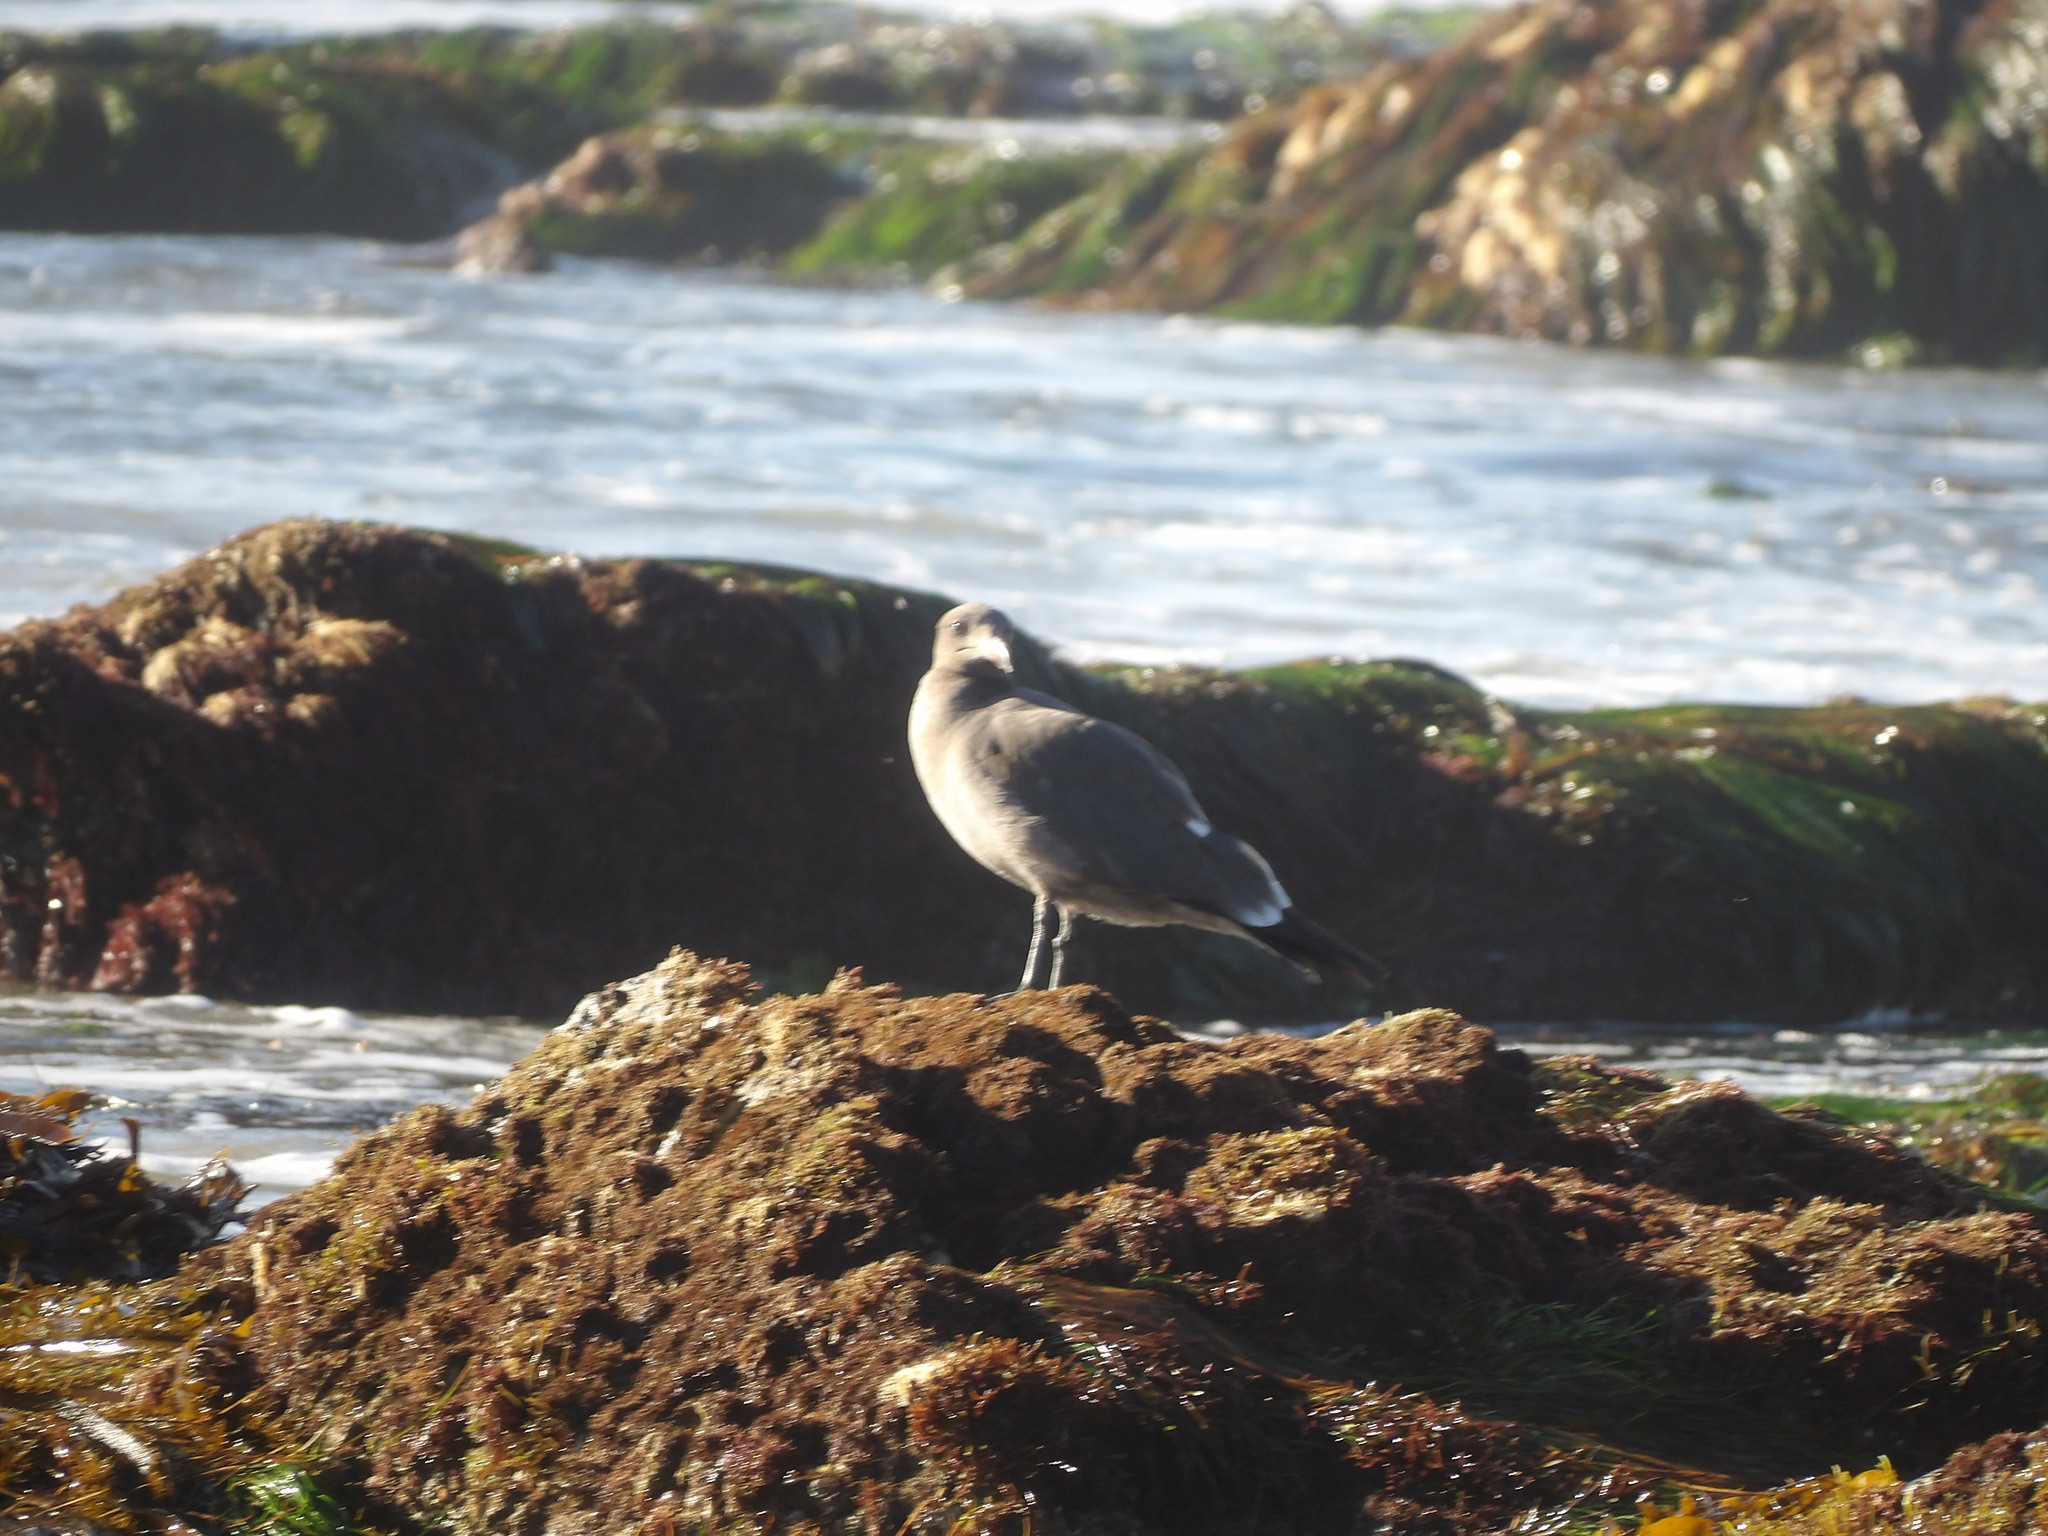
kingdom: Animalia
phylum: Chordata
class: Aves
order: Charadriiformes
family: Laridae
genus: Larus
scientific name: Larus heermanni
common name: Heermann's gull
